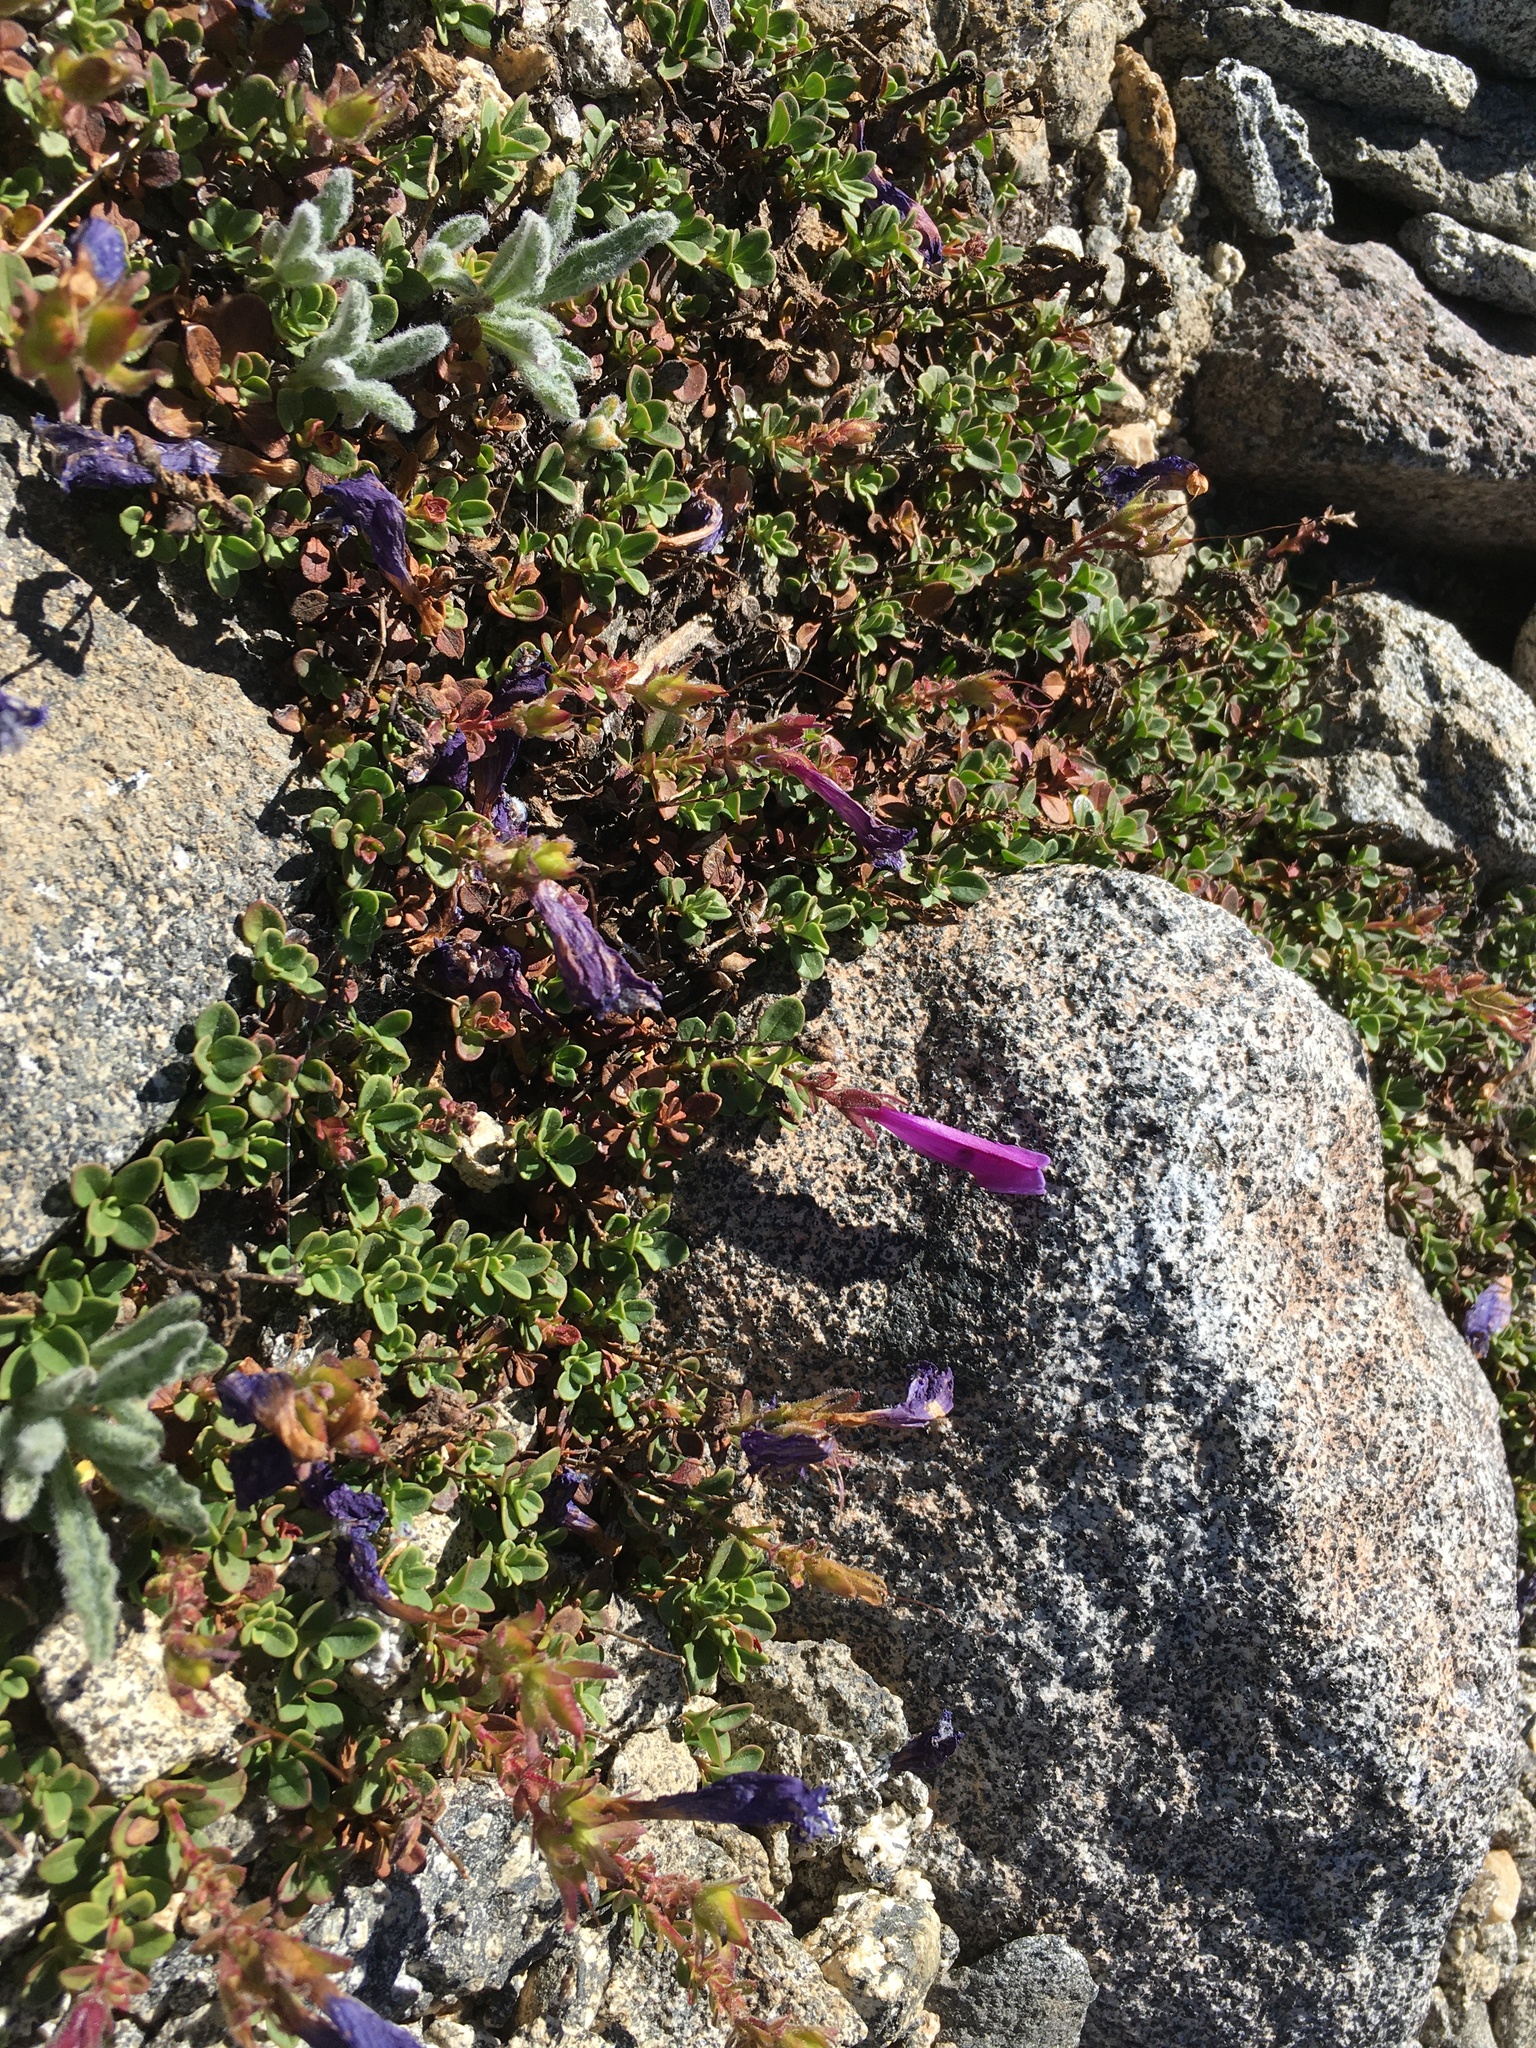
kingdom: Plantae
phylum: Tracheophyta
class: Magnoliopsida
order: Lamiales
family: Plantaginaceae
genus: Penstemon
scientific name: Penstemon davidsonii
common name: Davidson's penstemon
